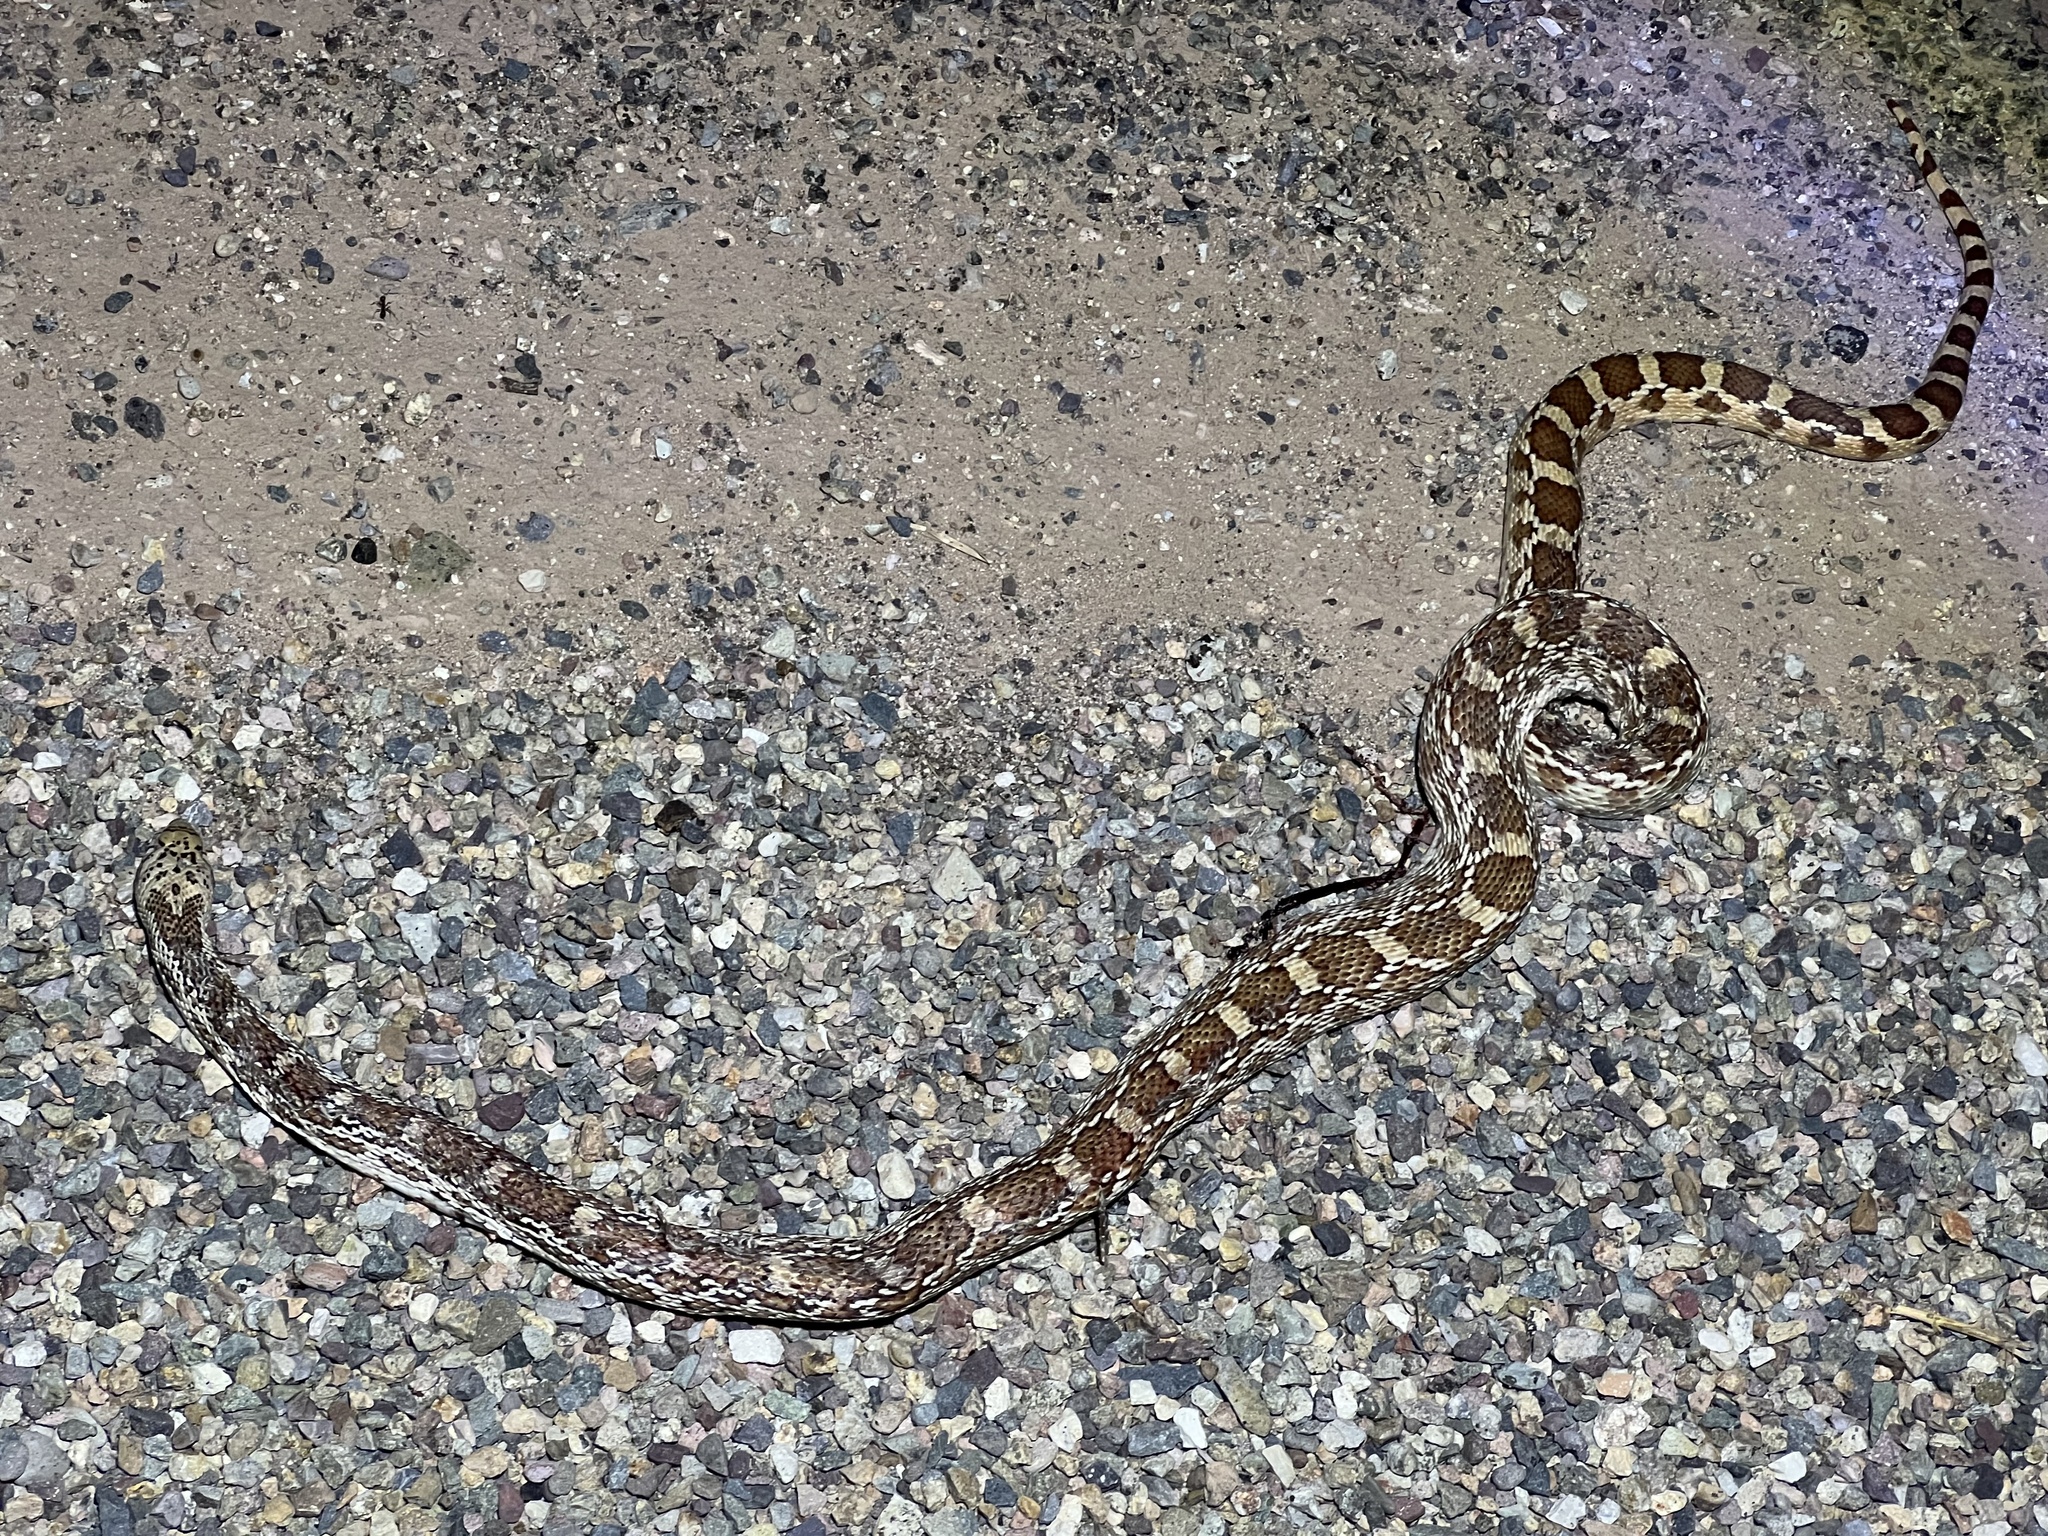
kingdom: Animalia
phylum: Chordata
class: Squamata
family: Colubridae
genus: Pituophis
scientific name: Pituophis catenifer
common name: Gopher snake
